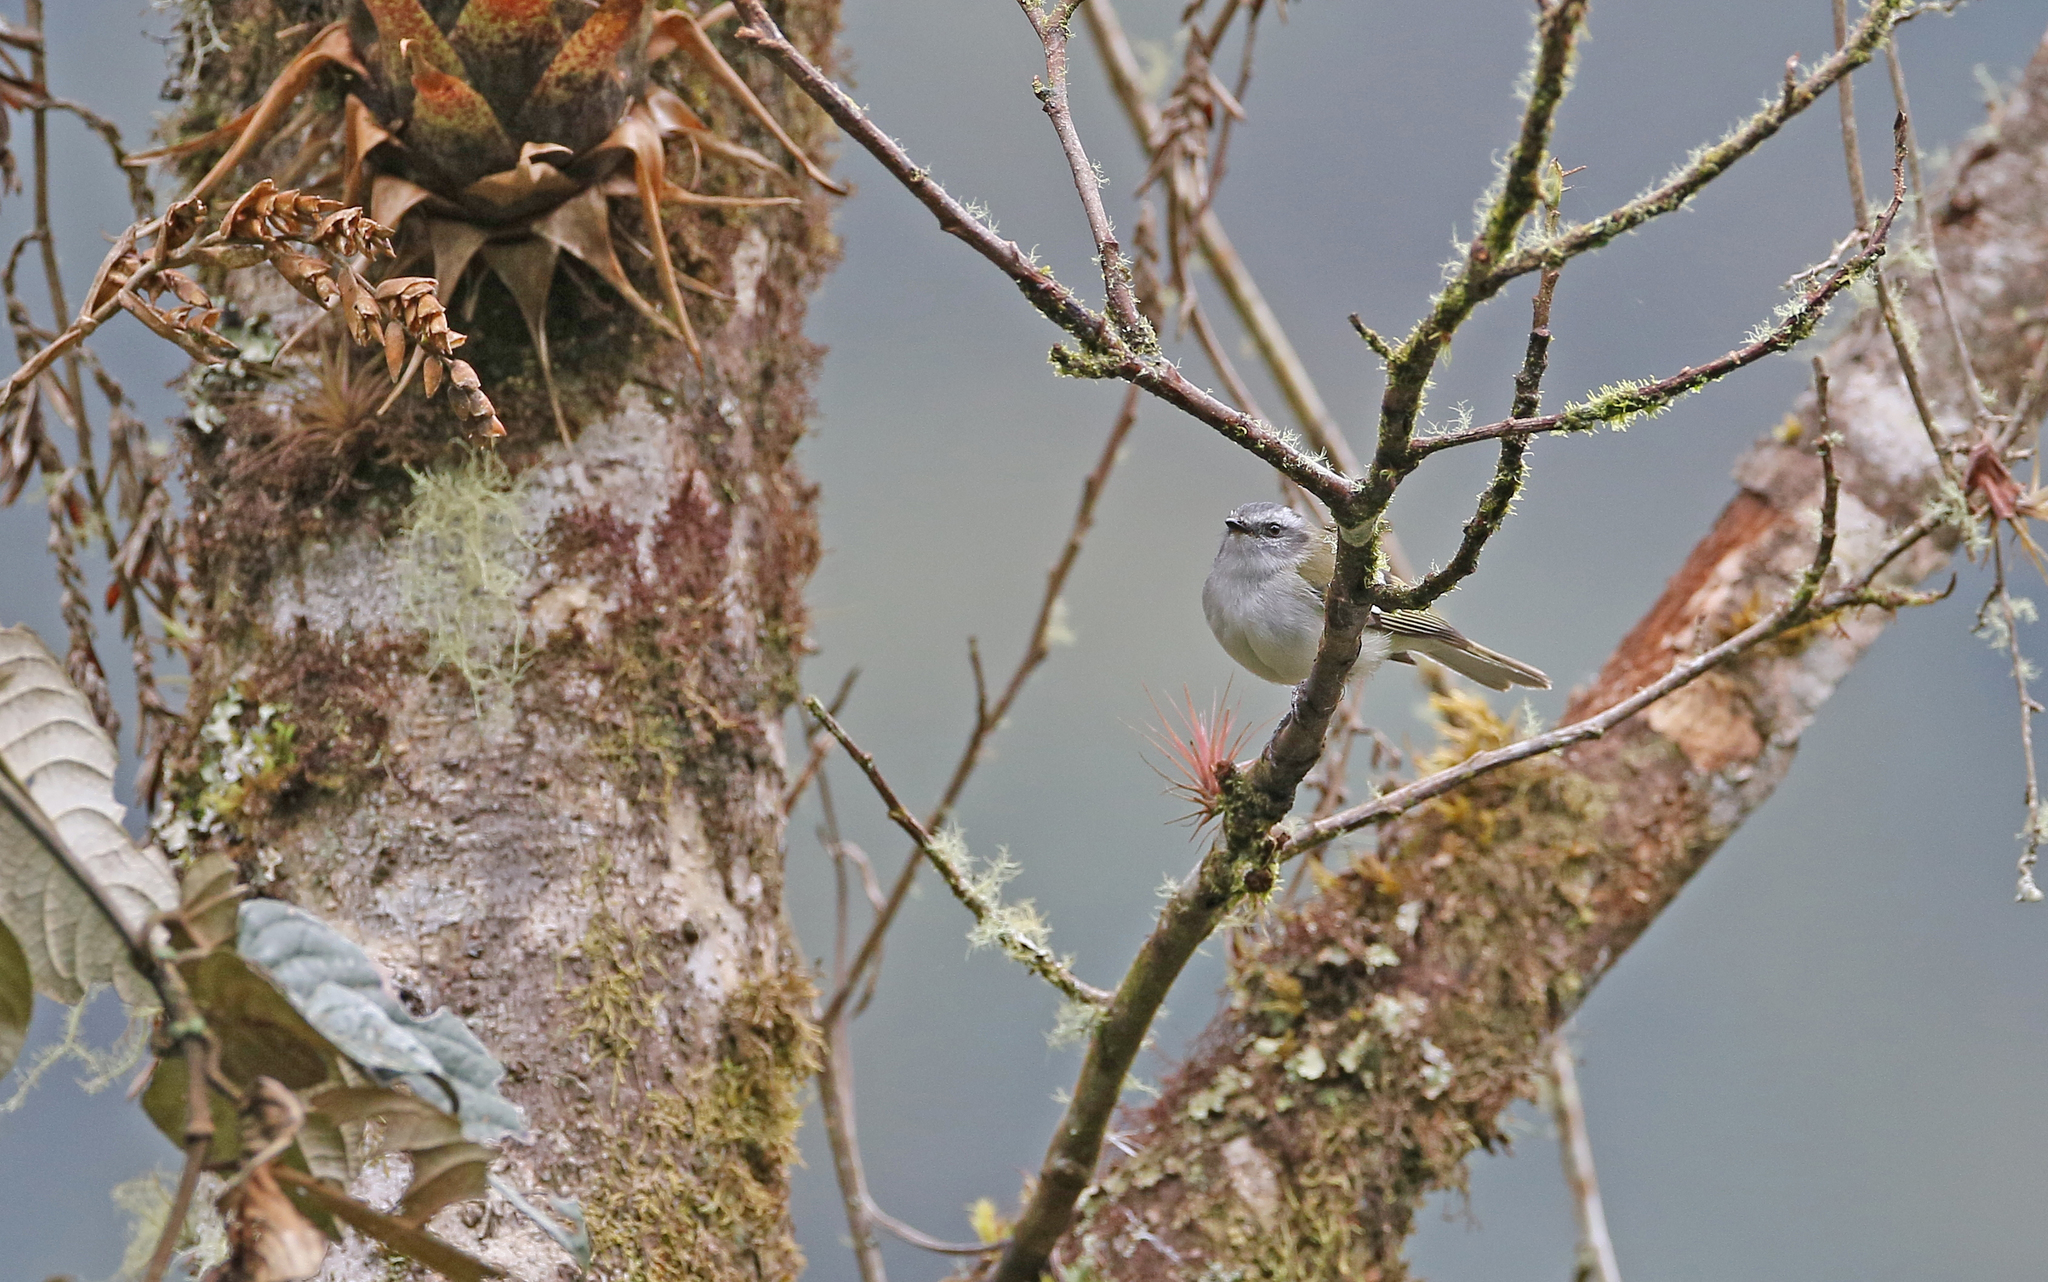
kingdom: Animalia
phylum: Chordata
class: Aves
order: Passeriformes
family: Tyrannidae
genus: Mecocerculus
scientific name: Mecocerculus stictopterus
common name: White-banded tyrannulet
